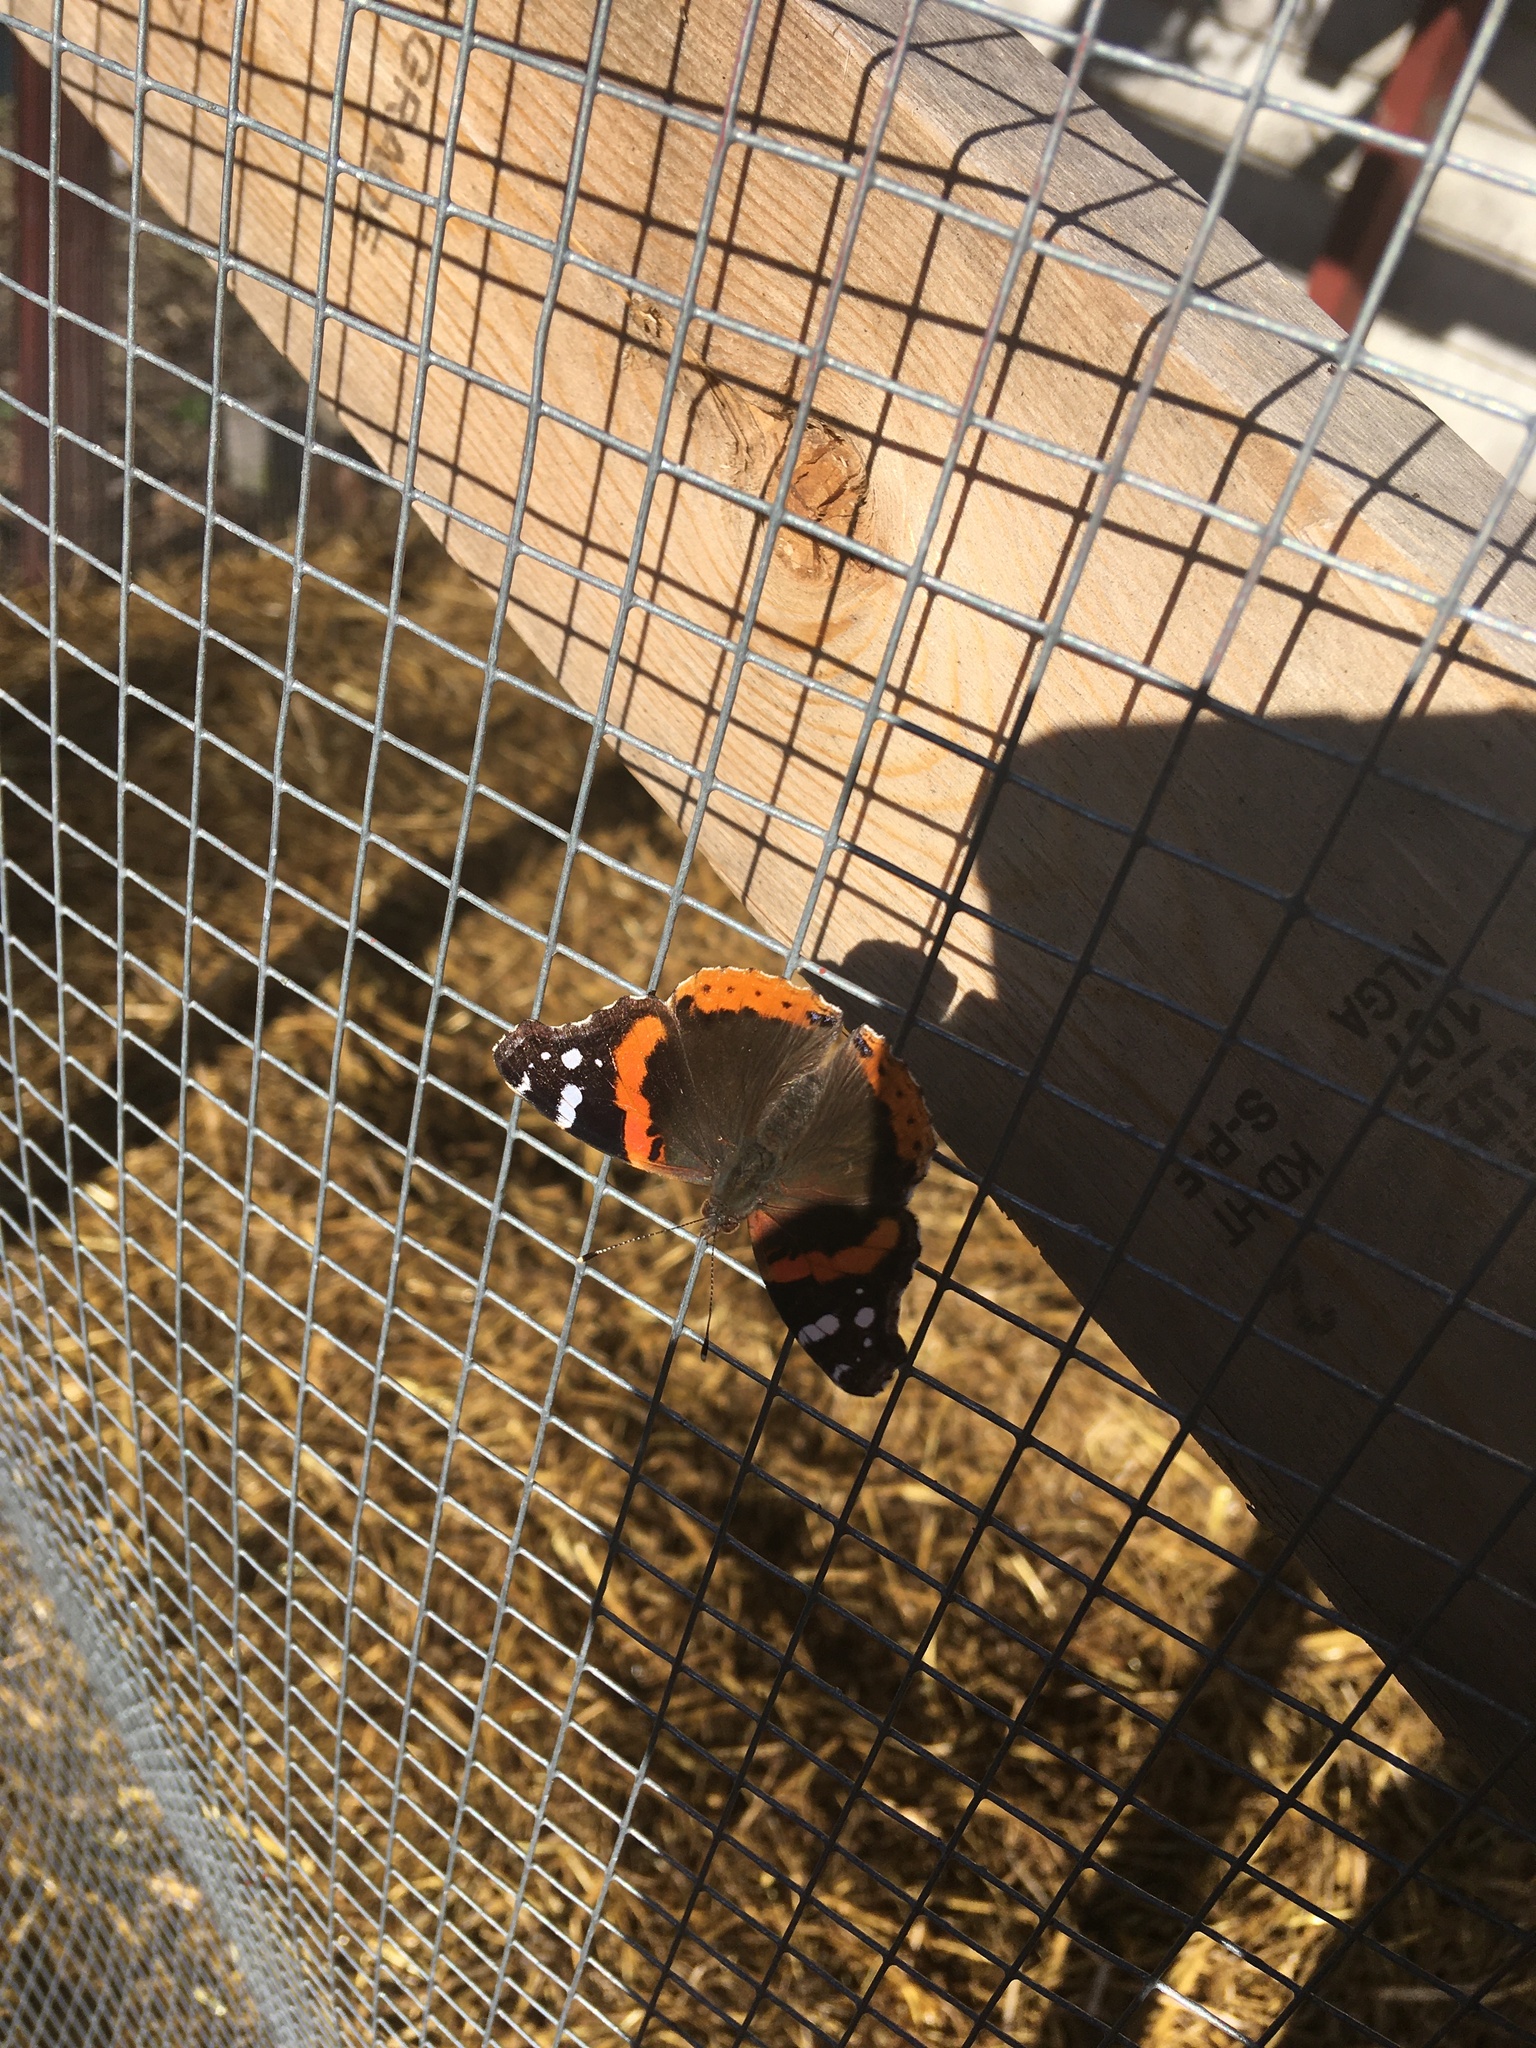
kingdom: Animalia
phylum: Arthropoda
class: Insecta
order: Lepidoptera
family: Nymphalidae
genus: Vanessa
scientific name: Vanessa atalanta
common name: Red admiral
